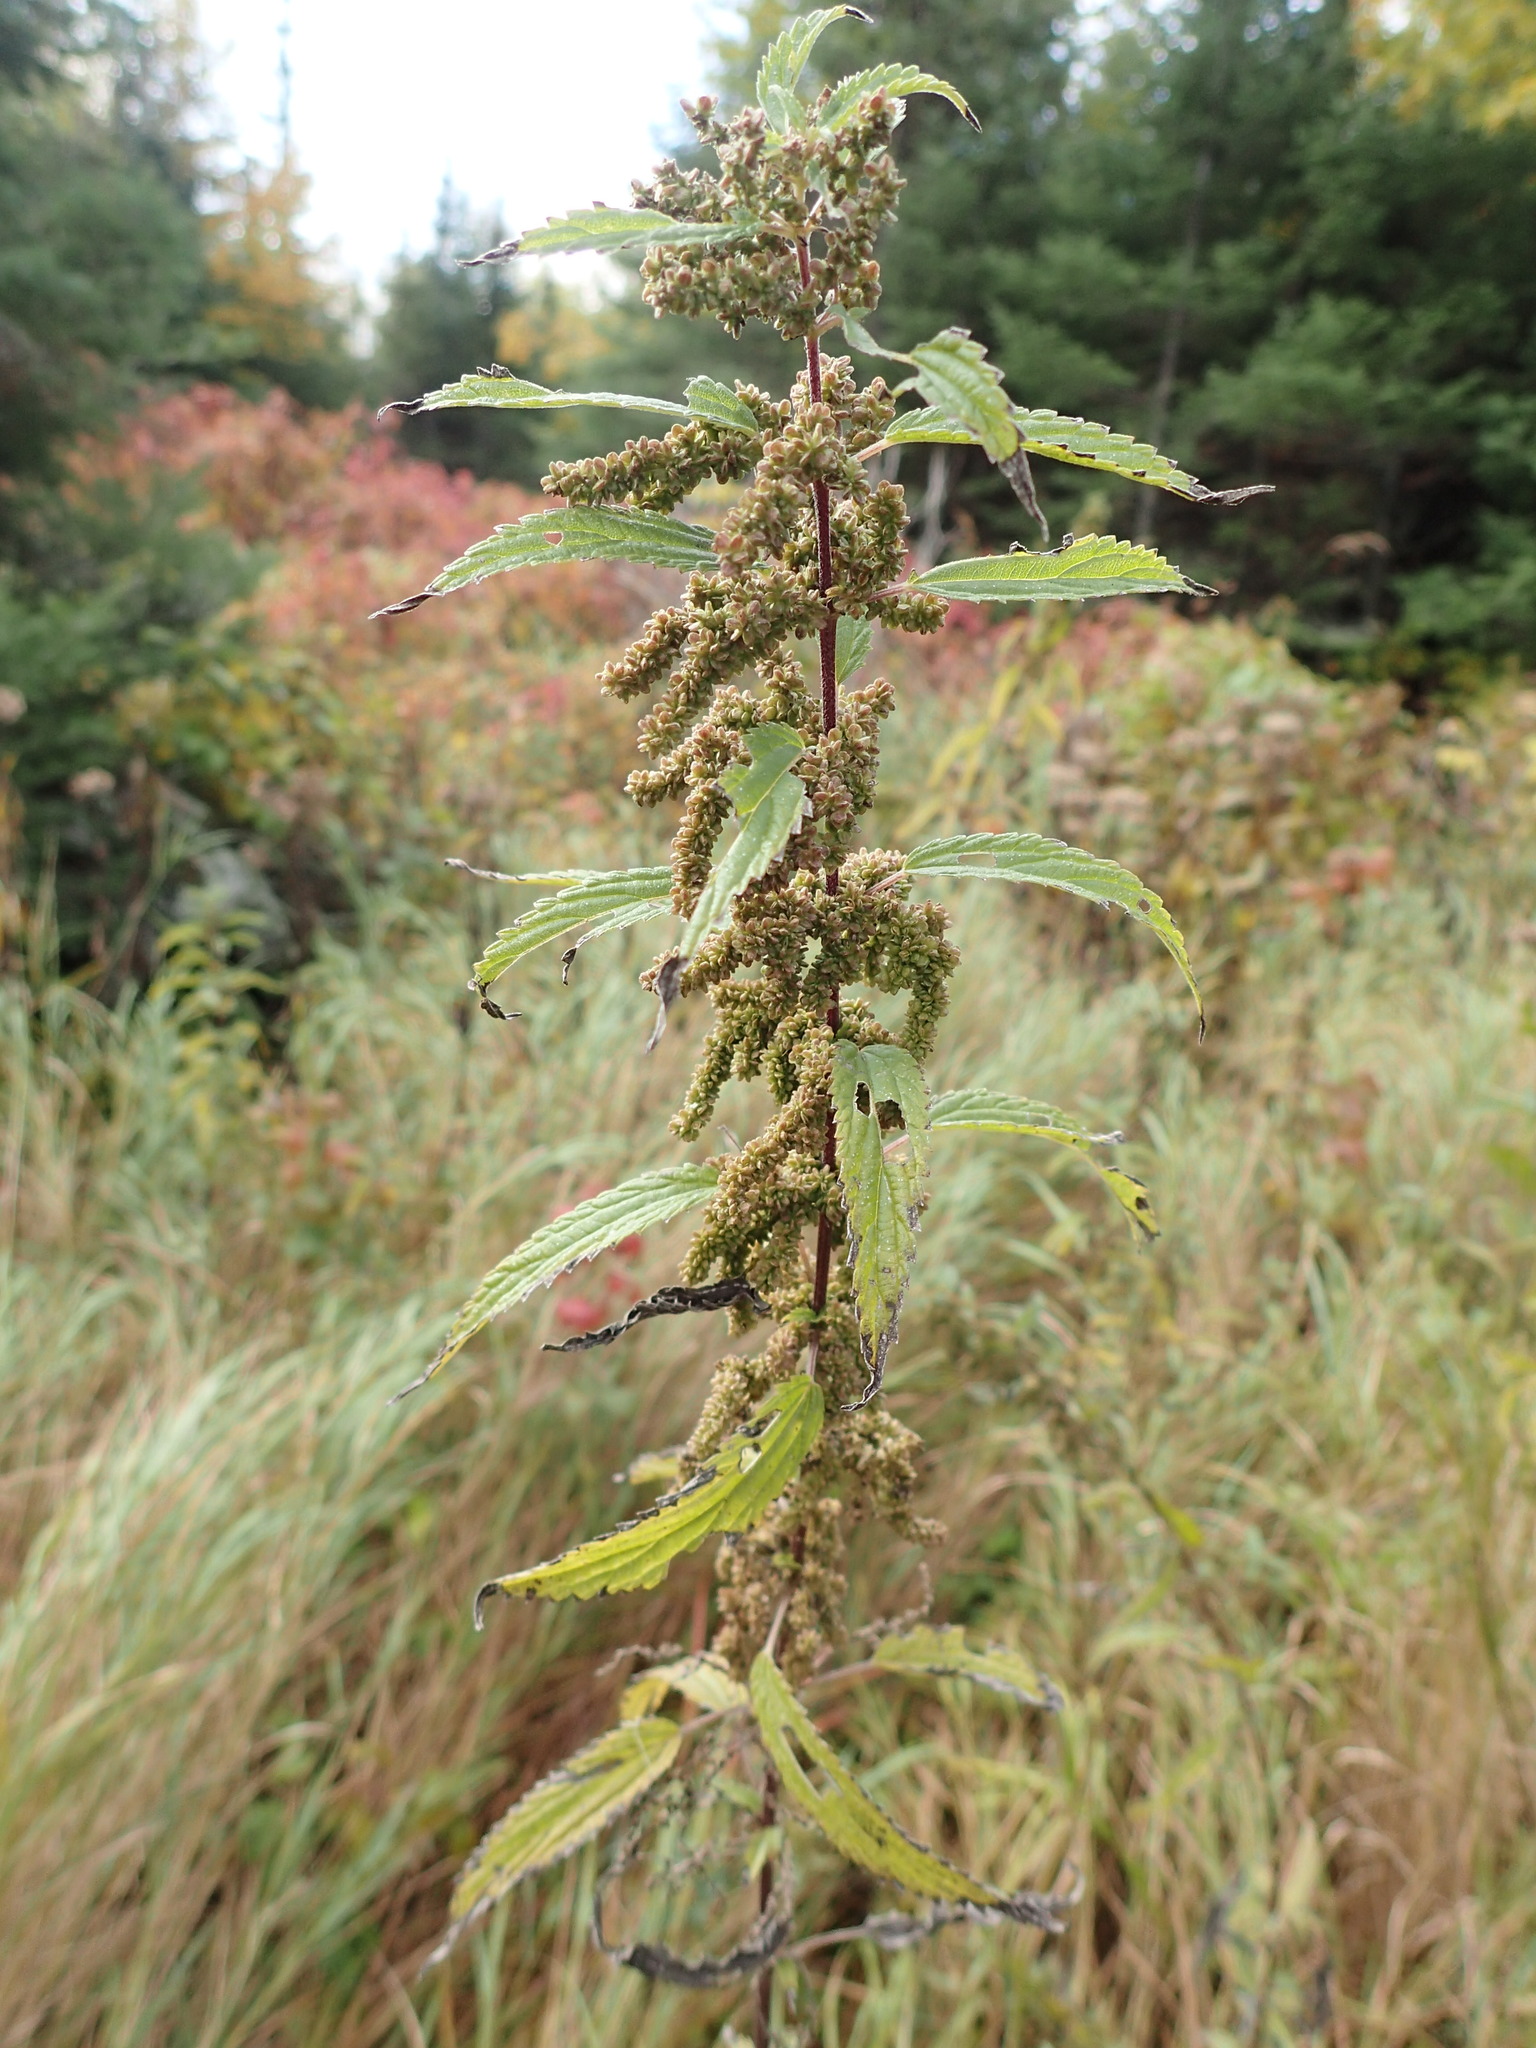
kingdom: Plantae
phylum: Tracheophyta
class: Magnoliopsida
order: Rosales
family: Urticaceae
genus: Urtica
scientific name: Urtica dioica
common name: Common nettle
